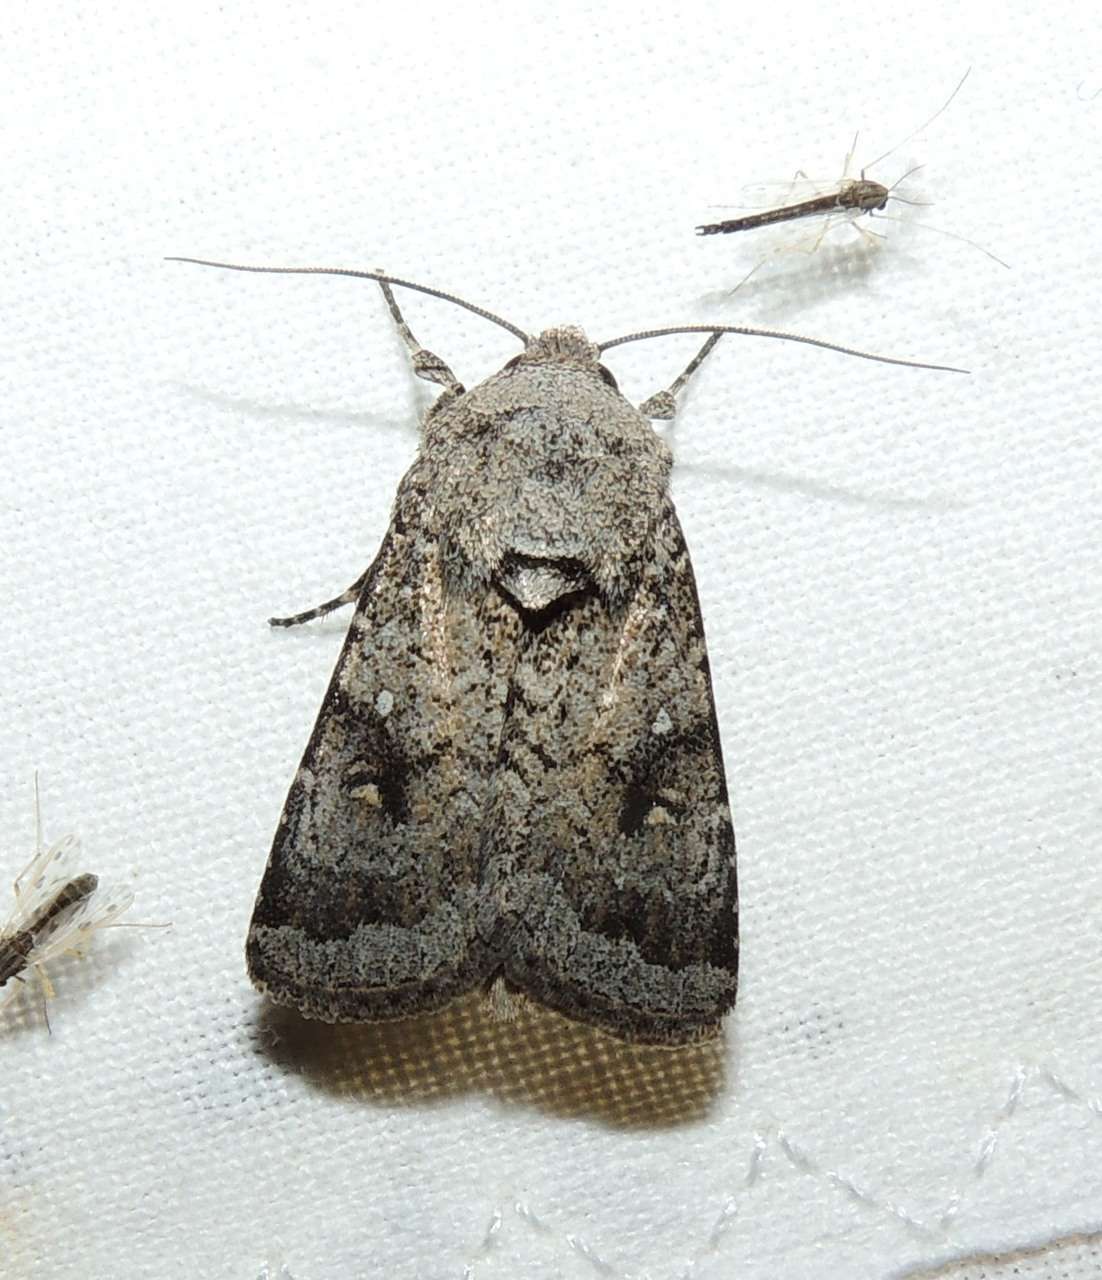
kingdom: Animalia
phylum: Arthropoda
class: Insecta
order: Lepidoptera
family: Noctuidae
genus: Proteuxoa
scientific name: Proteuxoa amaurodes
